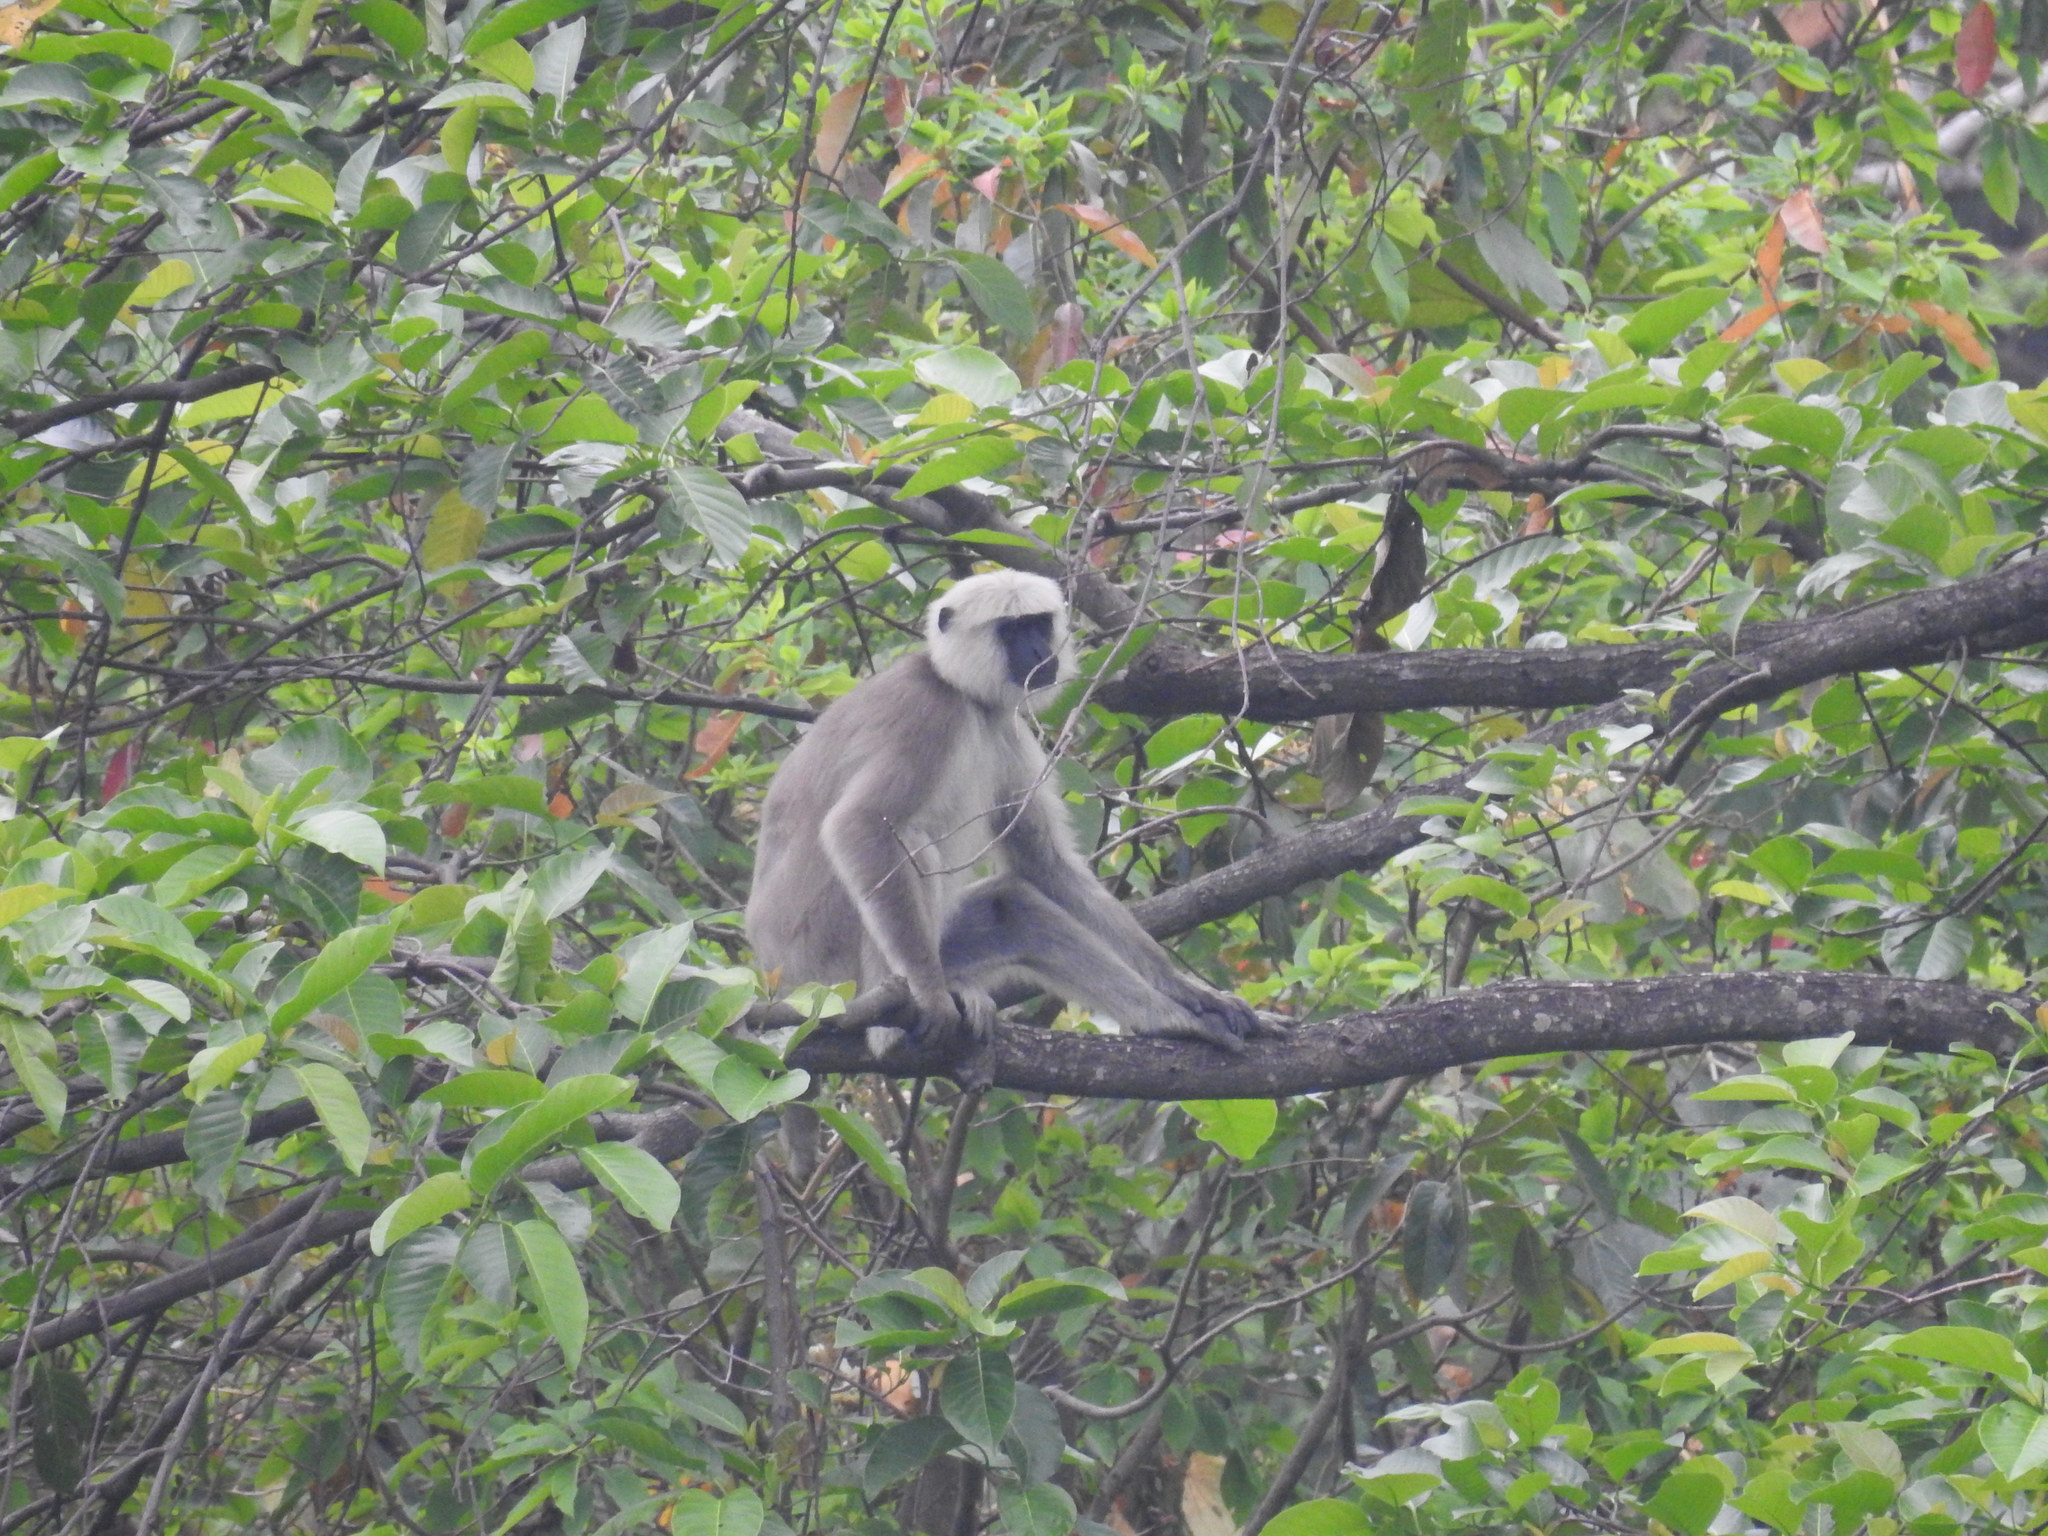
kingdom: Animalia
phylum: Chordata
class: Mammalia
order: Primates
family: Cercopithecidae
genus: Semnopithecus
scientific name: Semnopithecus schistaceus
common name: Nepal gray langur
